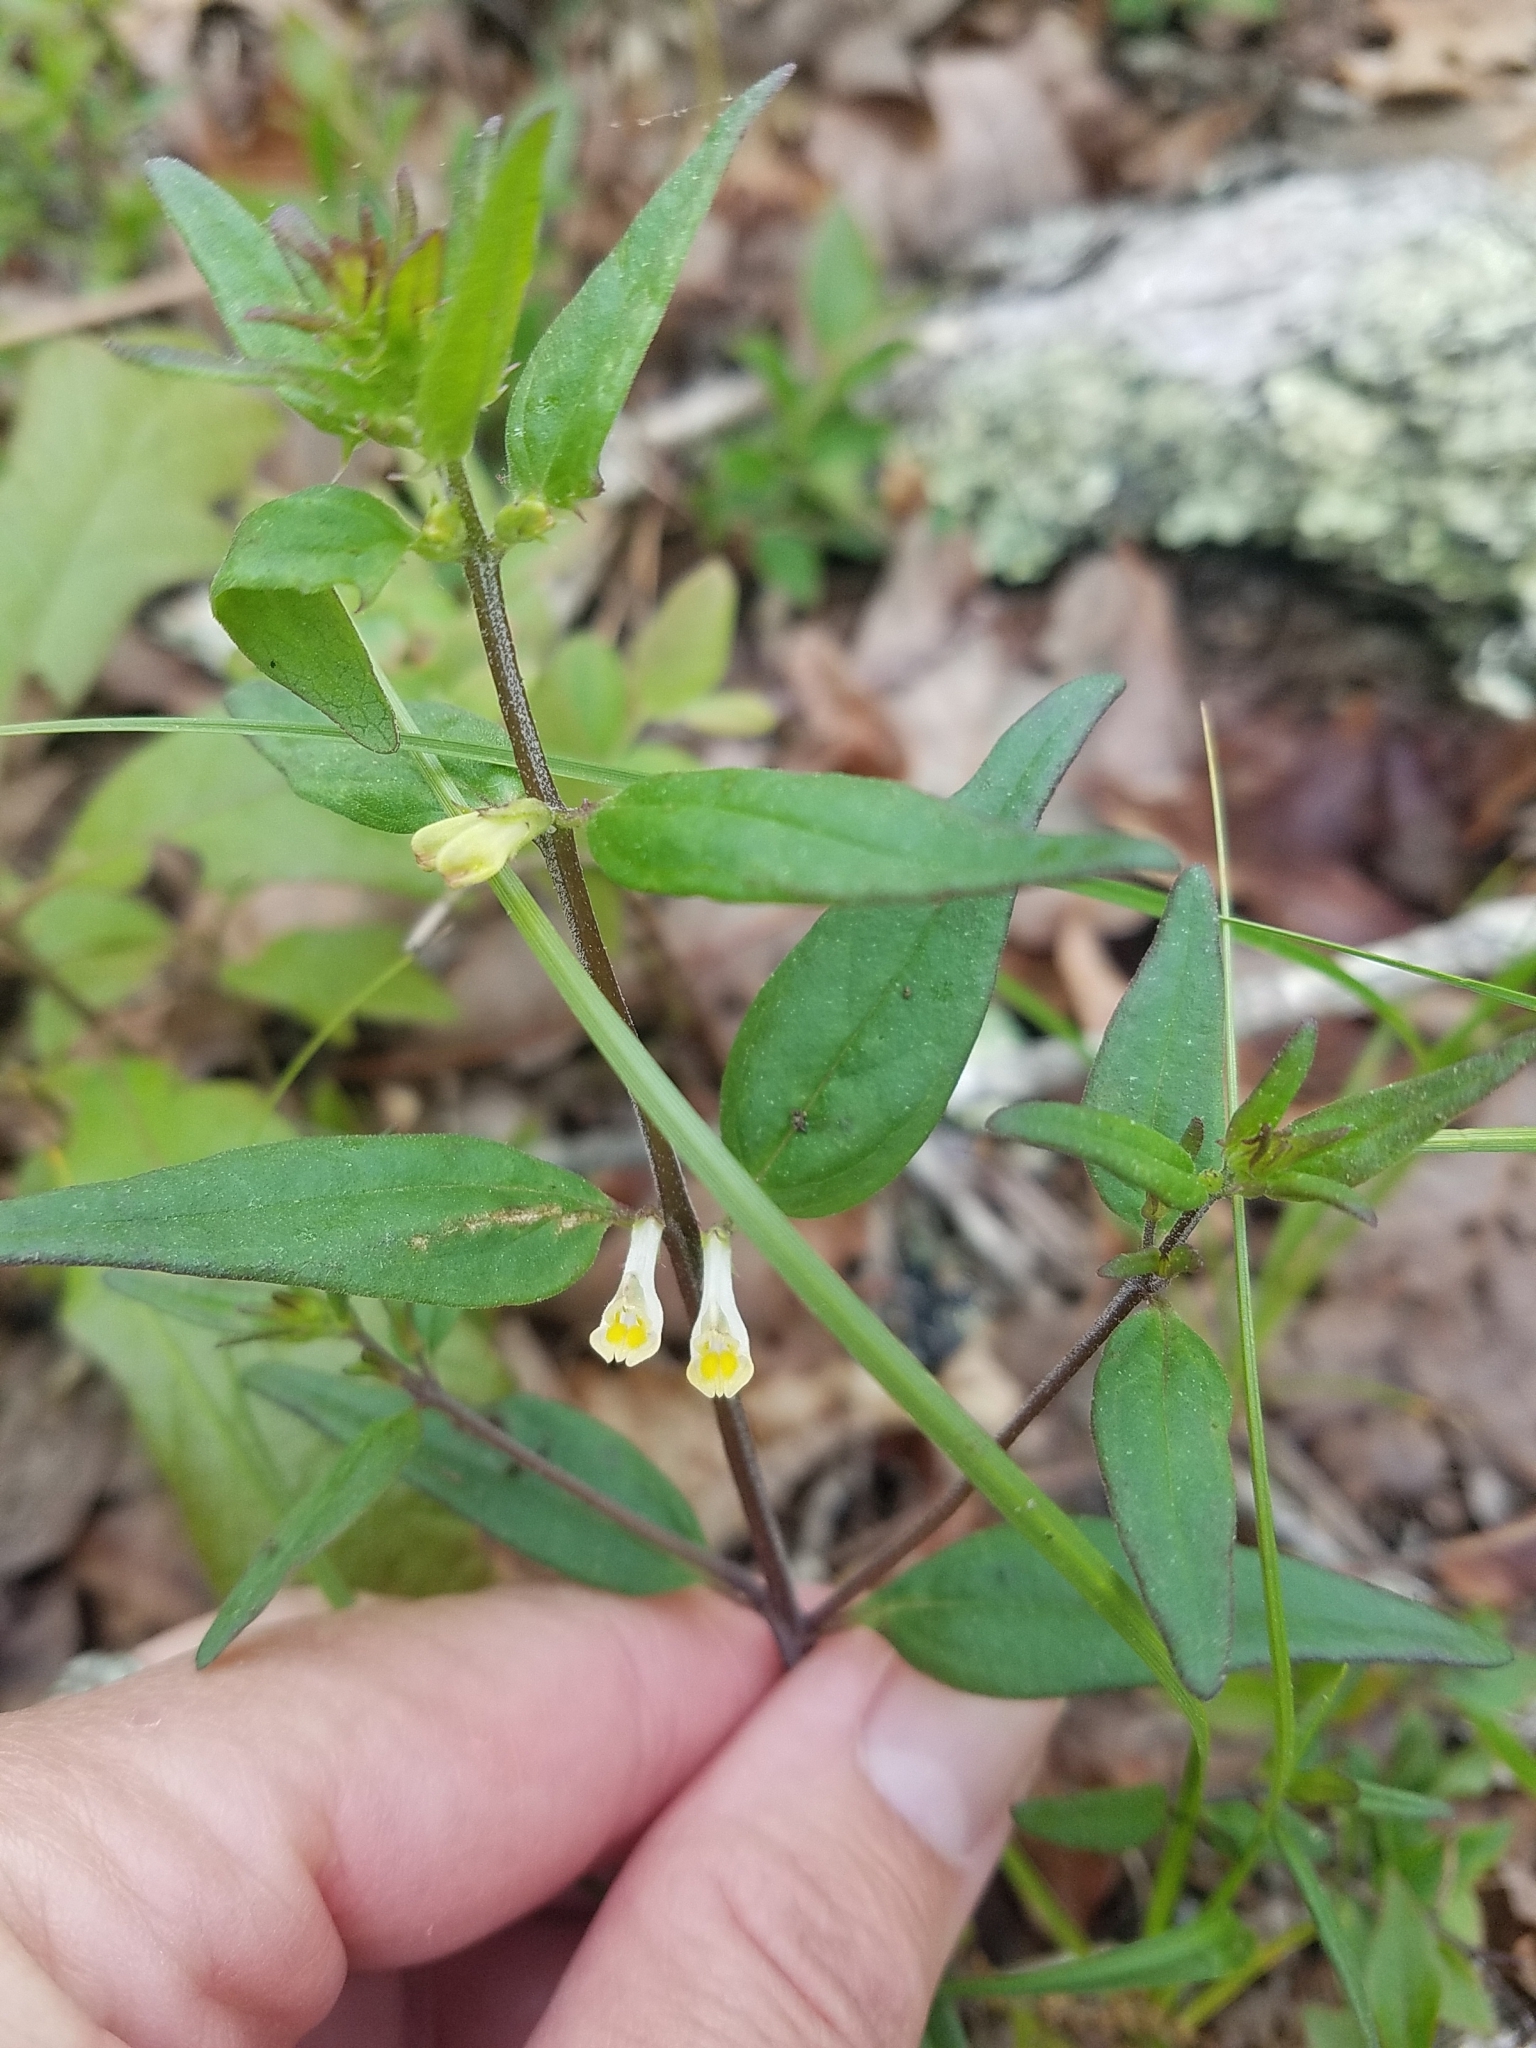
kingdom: Plantae
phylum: Tracheophyta
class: Magnoliopsida
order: Lamiales
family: Orobanchaceae
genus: Melampyrum
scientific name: Melampyrum lineare
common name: American cow-wheat
